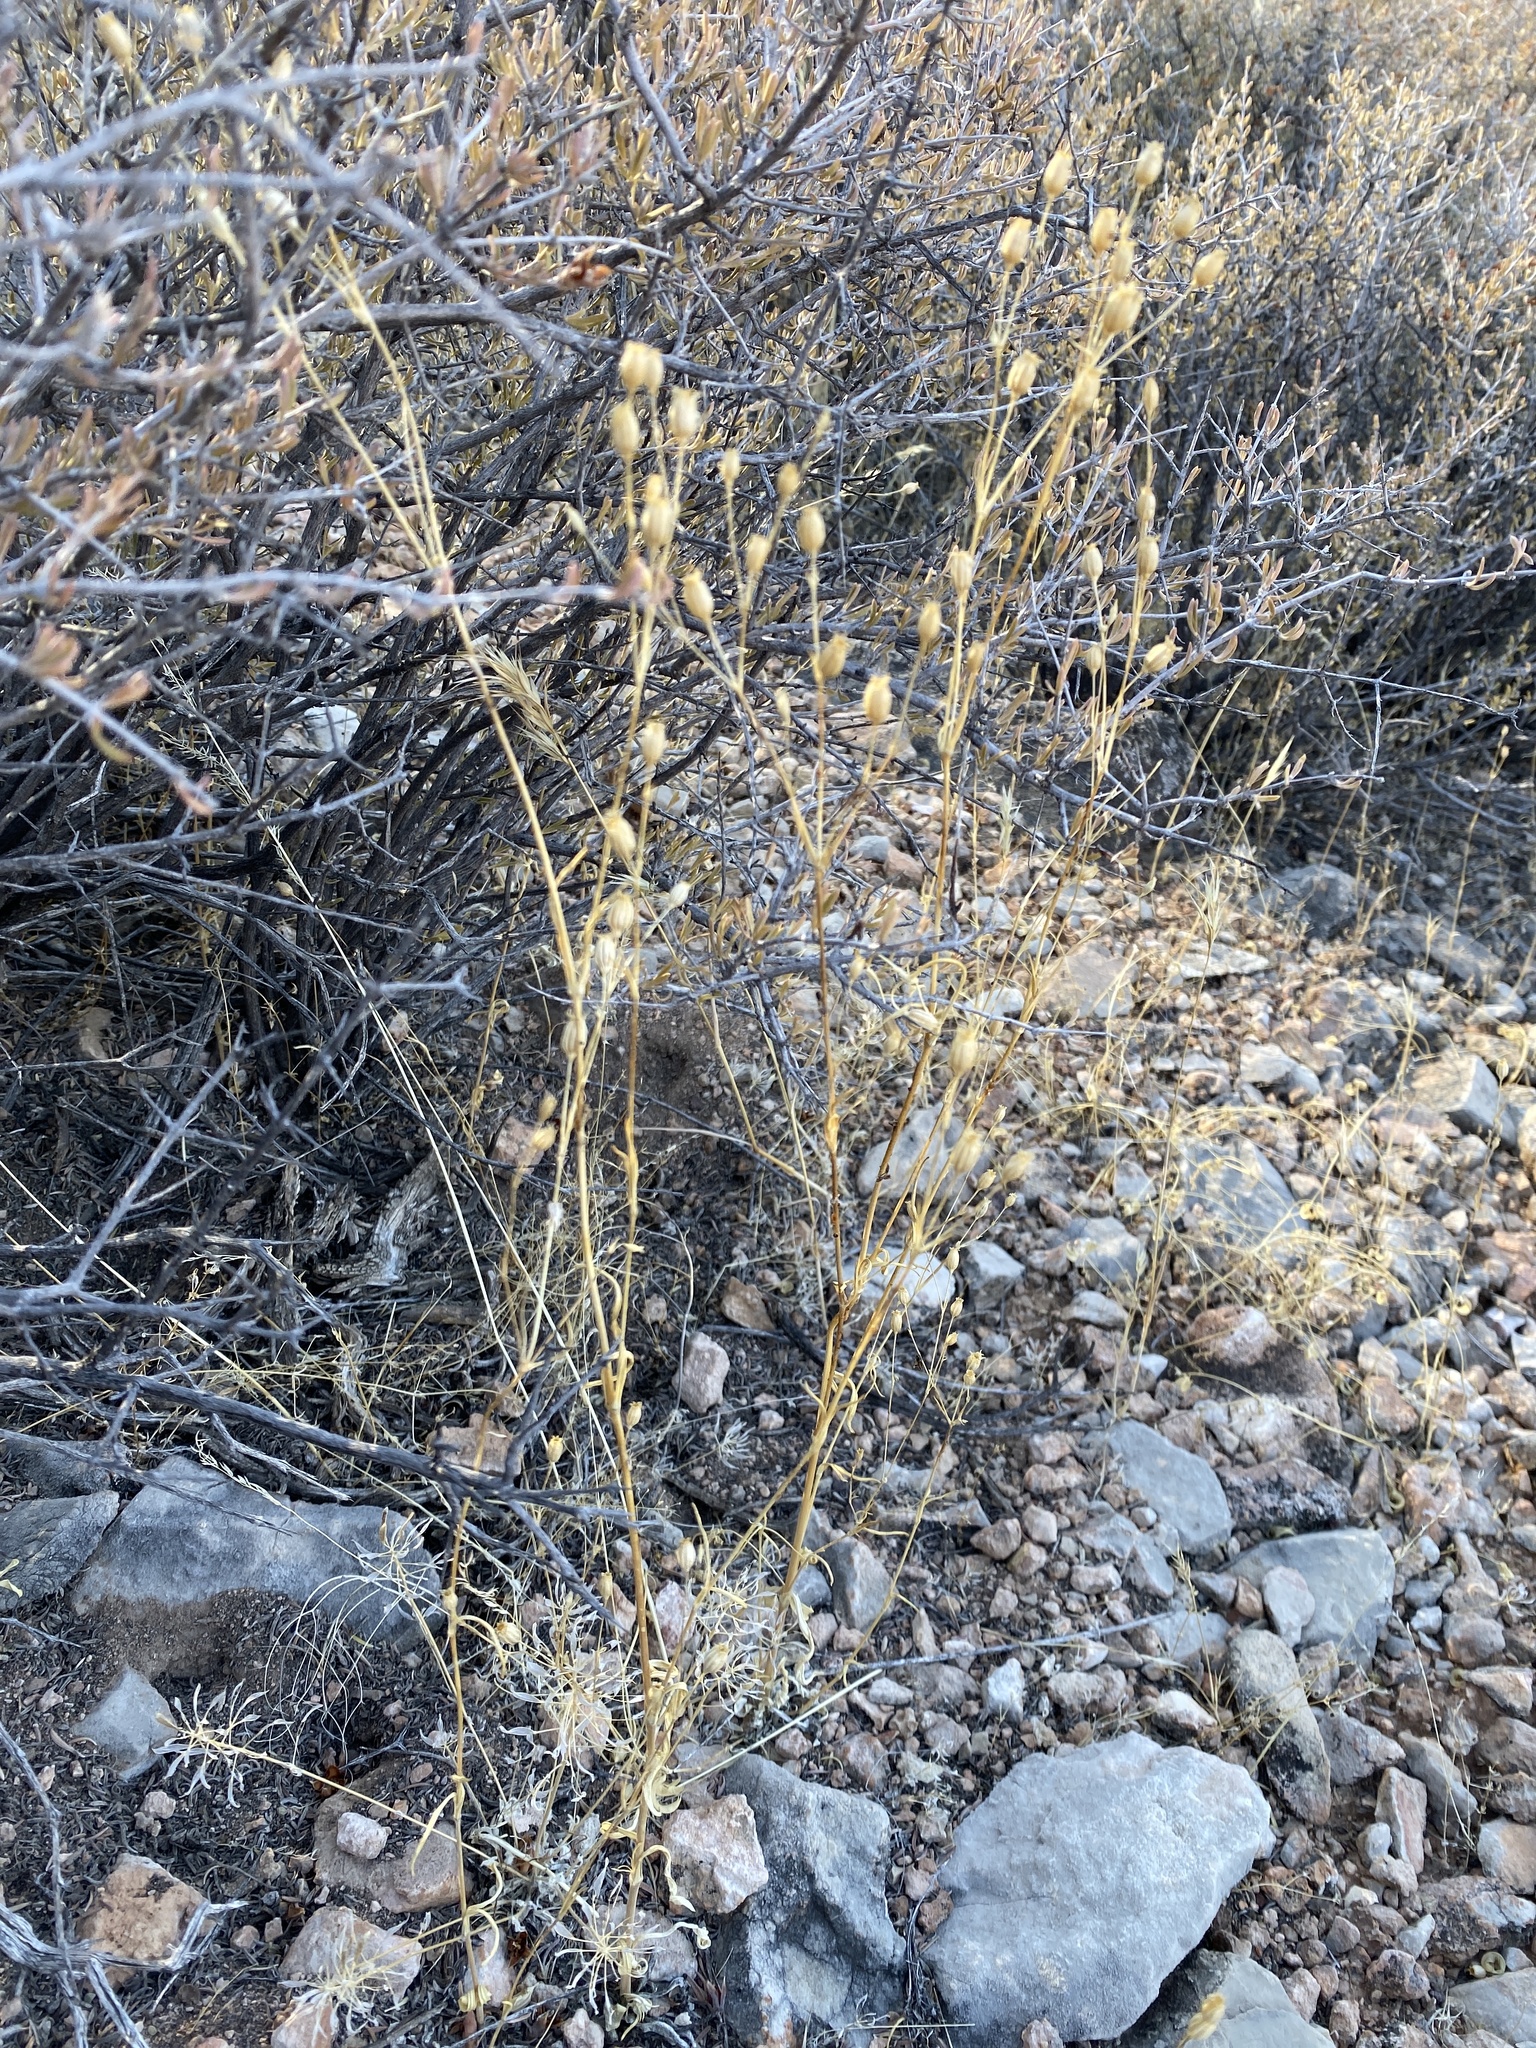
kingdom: Plantae
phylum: Tracheophyta
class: Magnoliopsida
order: Caryophyllales
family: Caryophyllaceae
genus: Silene
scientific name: Silene antirrhina
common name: Sleepy catchfly
